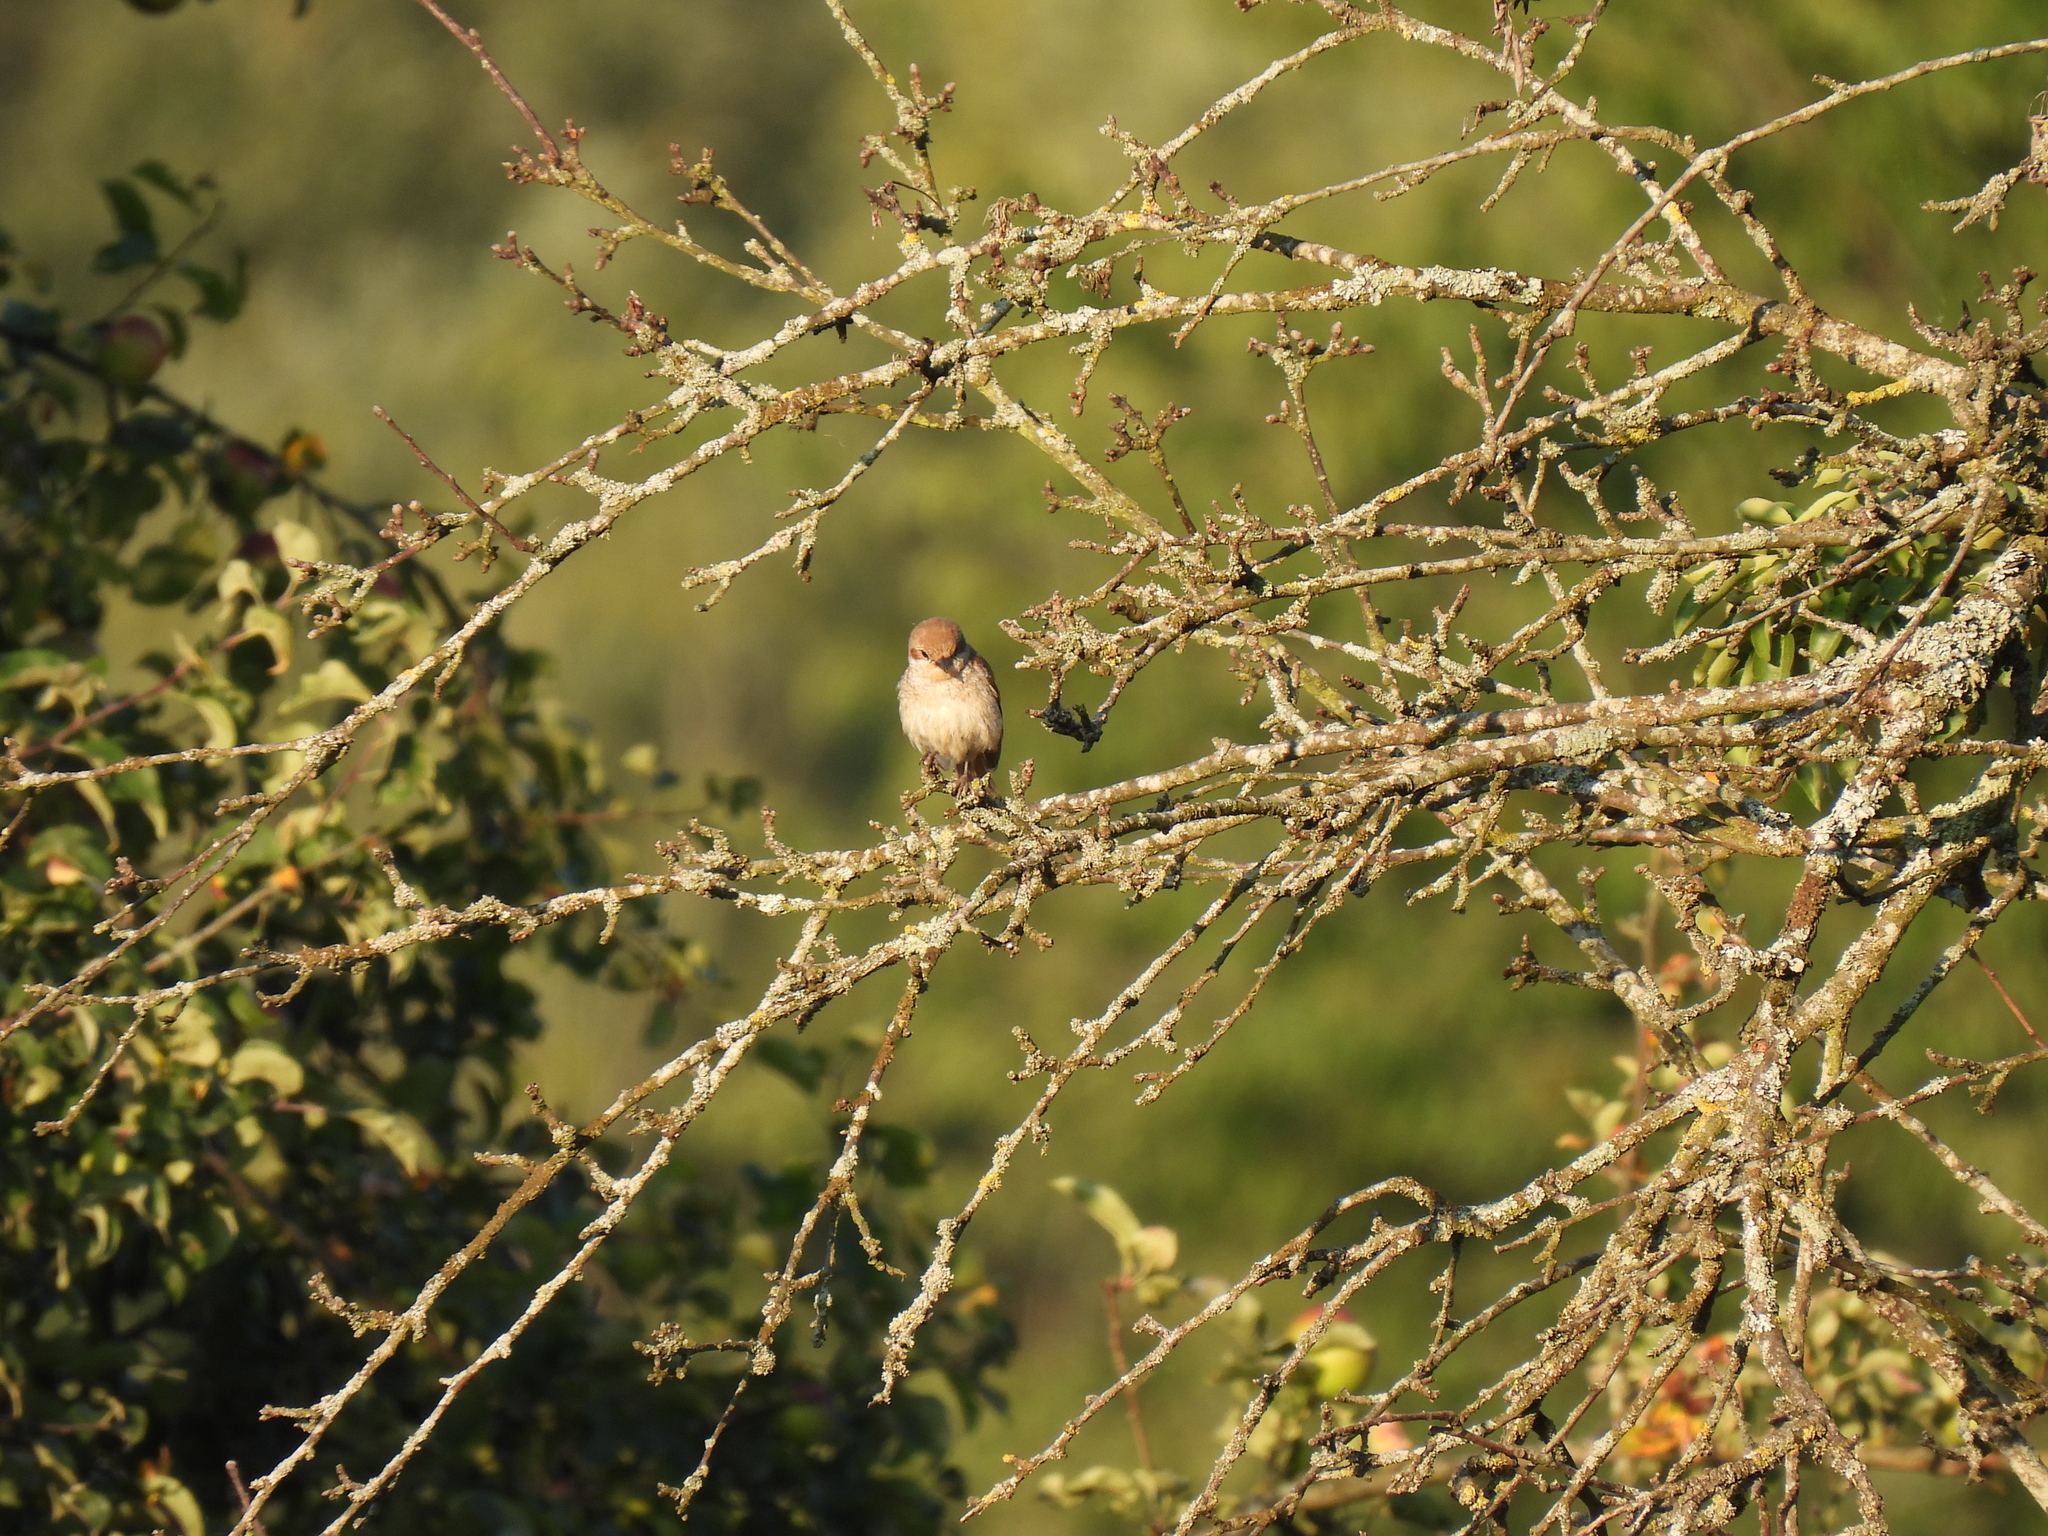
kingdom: Animalia
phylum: Chordata
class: Aves
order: Passeriformes
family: Laniidae
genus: Lanius
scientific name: Lanius collurio
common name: Red-backed shrike
